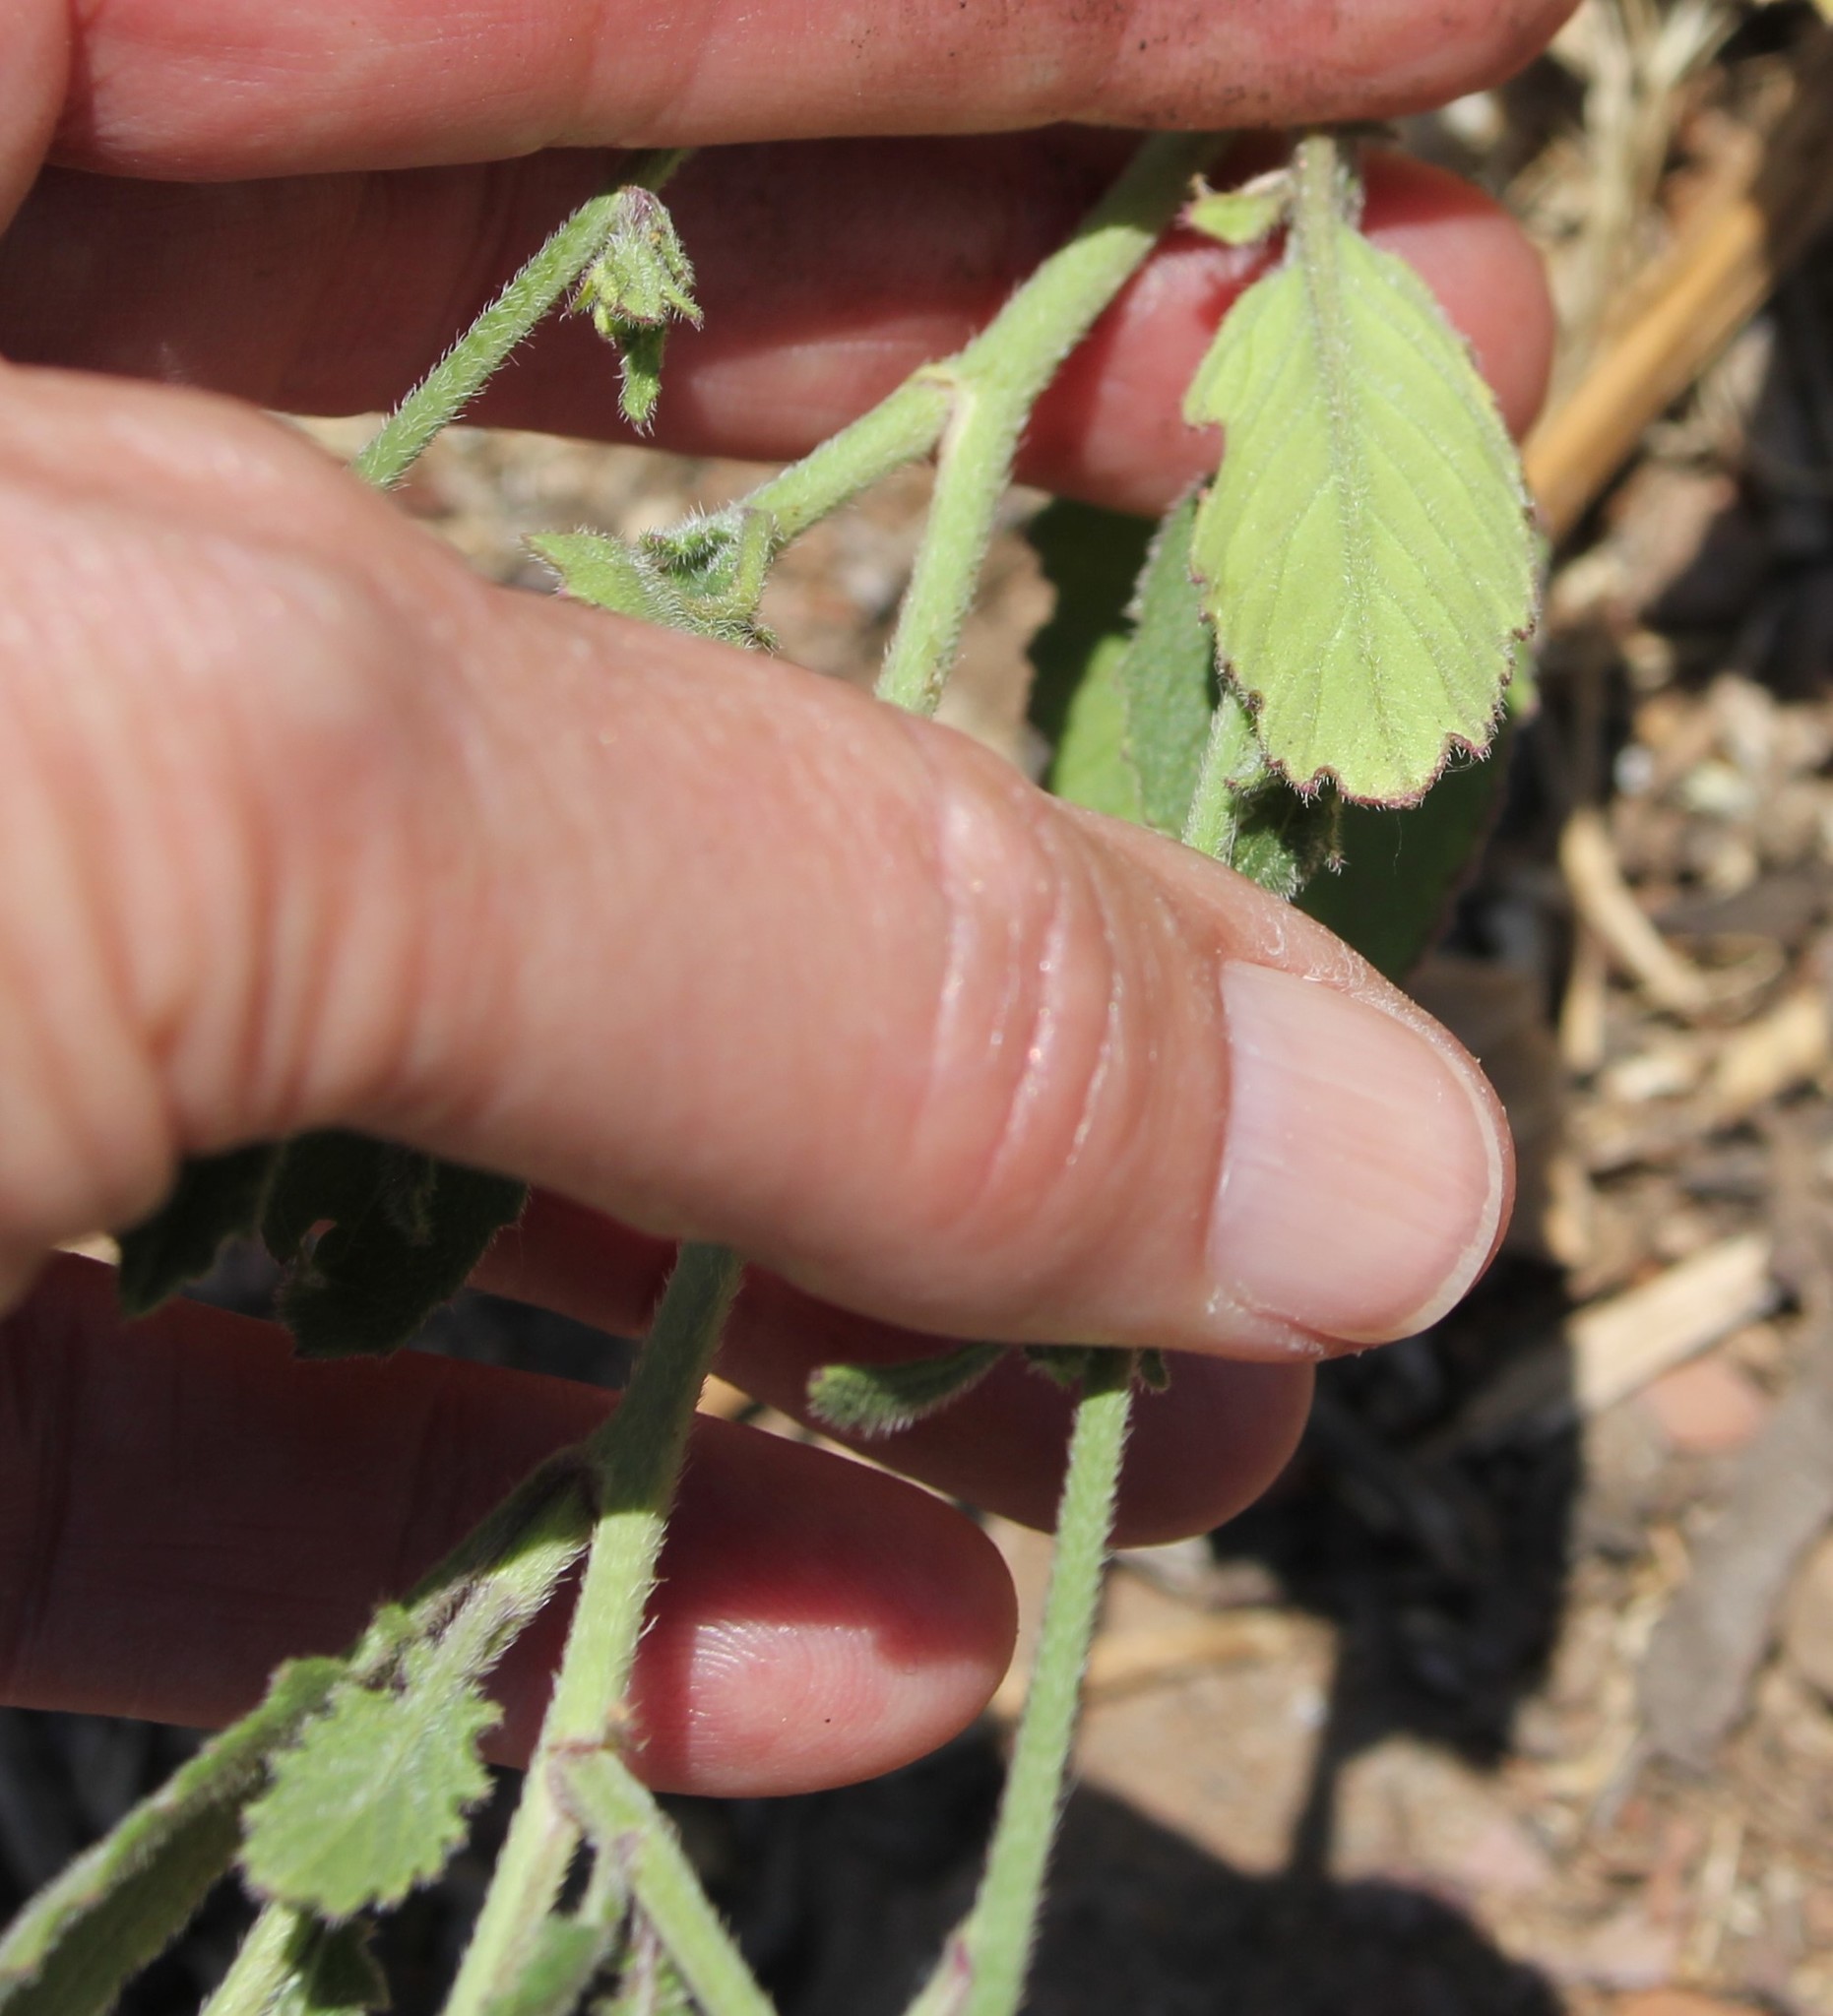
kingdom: Plantae
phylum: Tracheophyta
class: Magnoliopsida
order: Brassicales
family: Brassicaceae
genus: Hirschfeldia
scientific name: Hirschfeldia incana
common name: Hoary mustard
